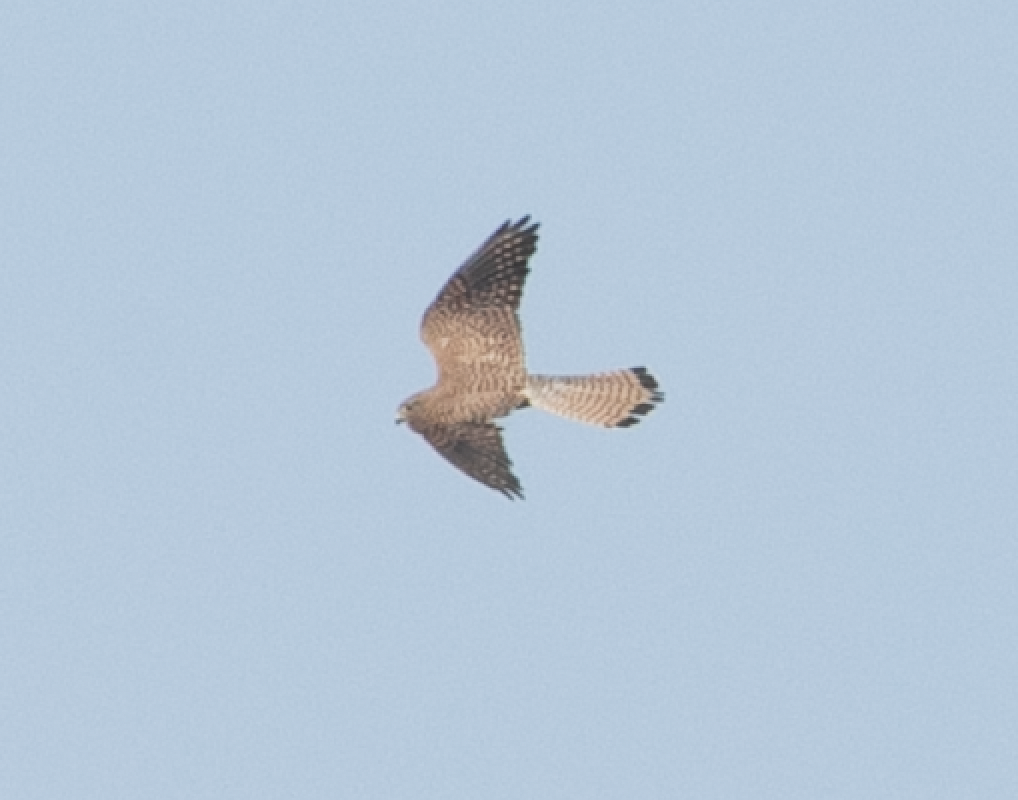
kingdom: Animalia
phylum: Chordata
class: Aves
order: Falconiformes
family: Falconidae
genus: Falco
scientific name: Falco tinnunculus
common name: Common kestrel
